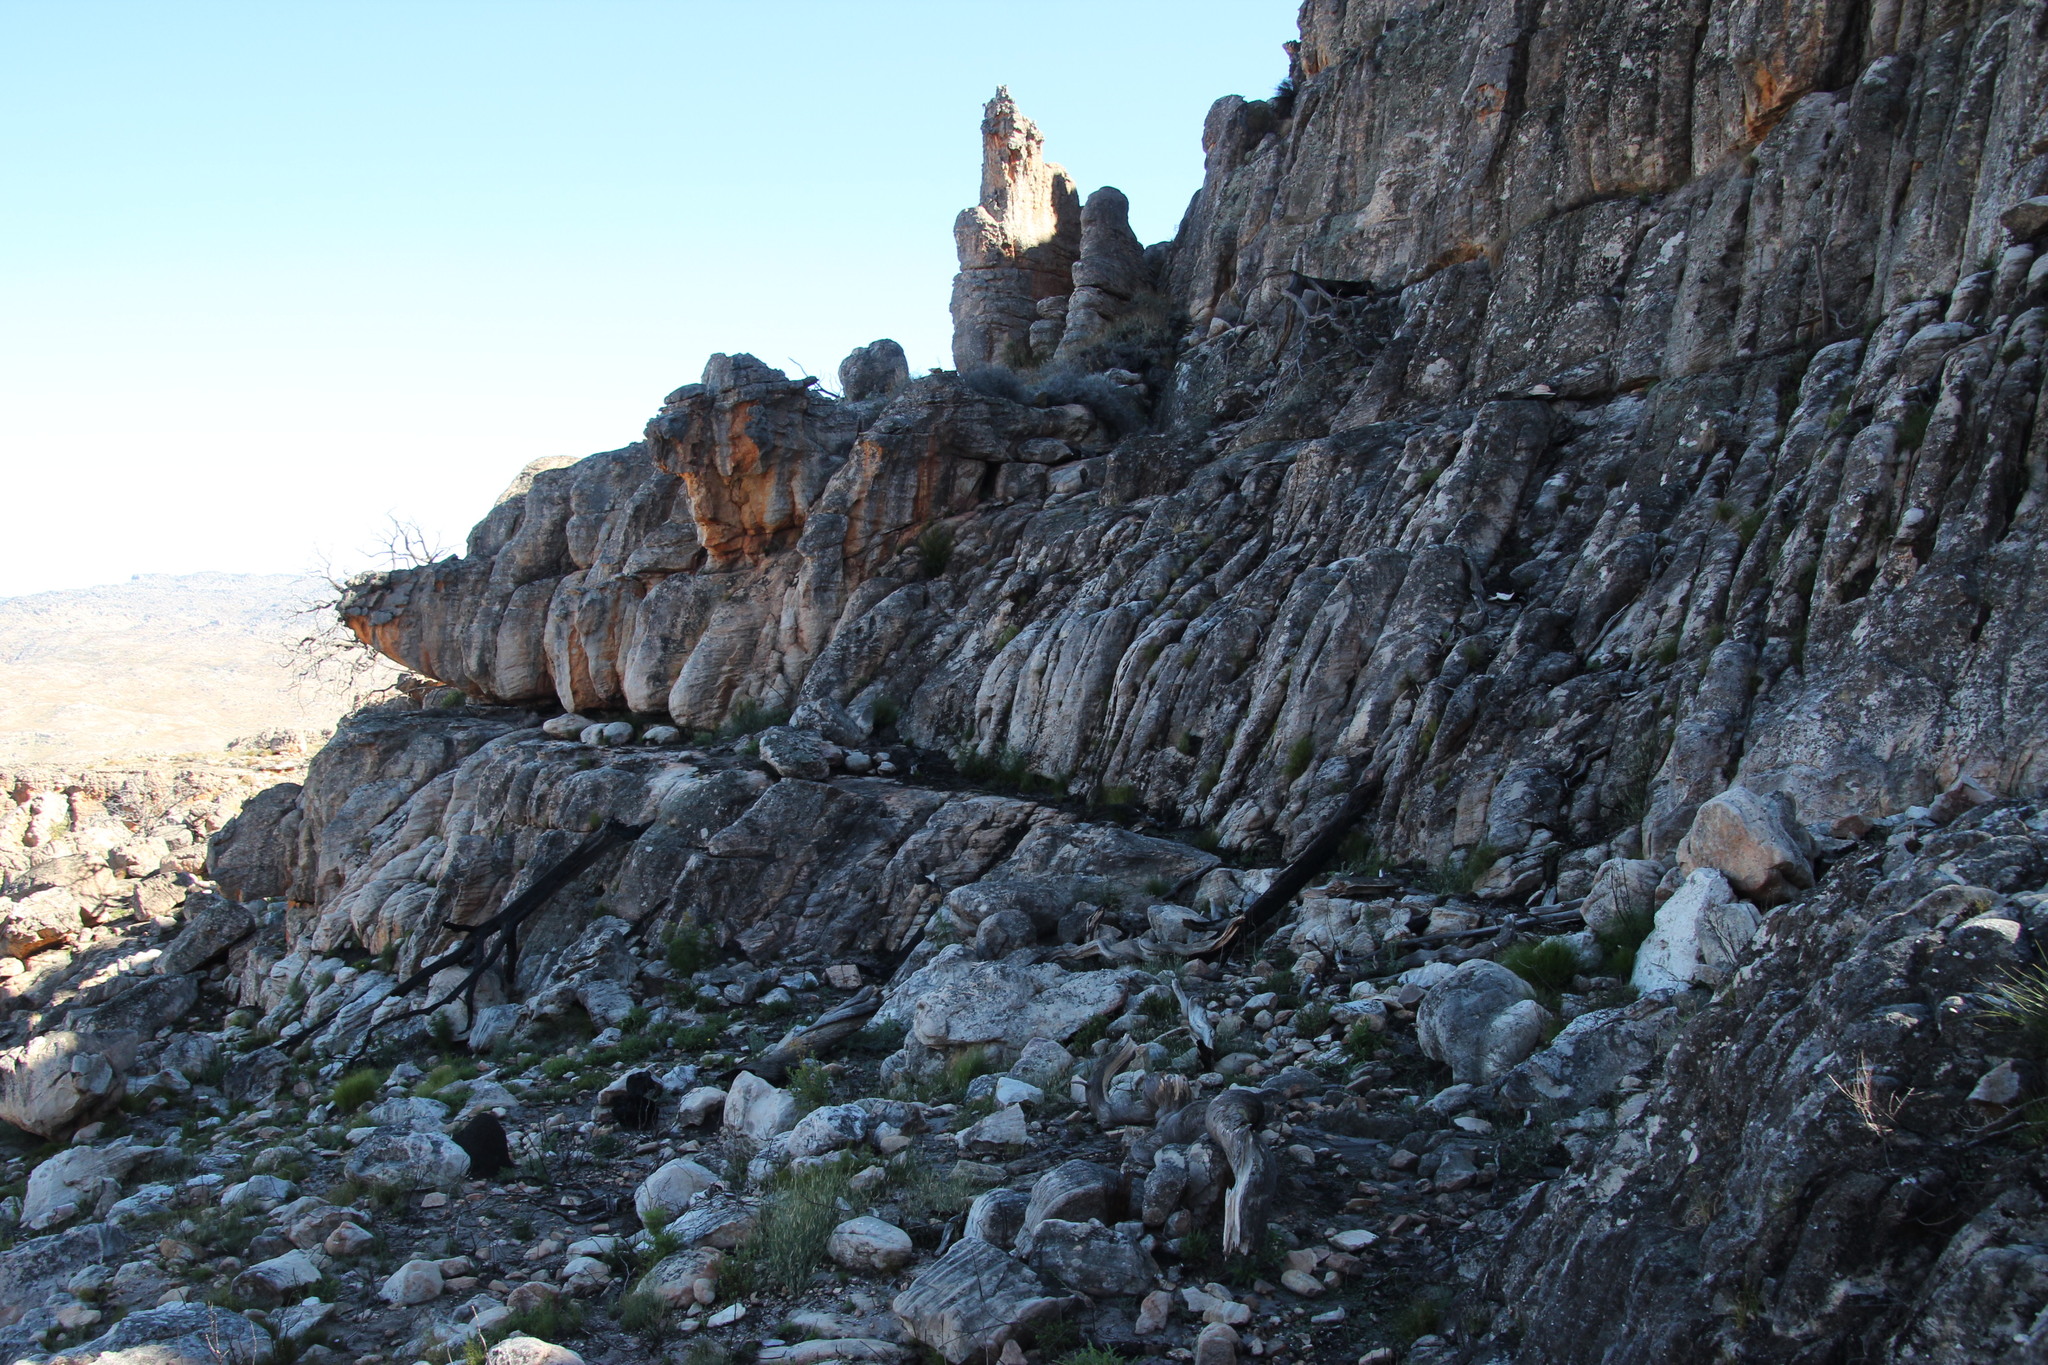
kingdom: Plantae
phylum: Tracheophyta
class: Pinopsida
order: Pinales
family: Cupressaceae
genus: Widdringtonia
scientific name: Widdringtonia nodiflora
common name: Cape cypress
